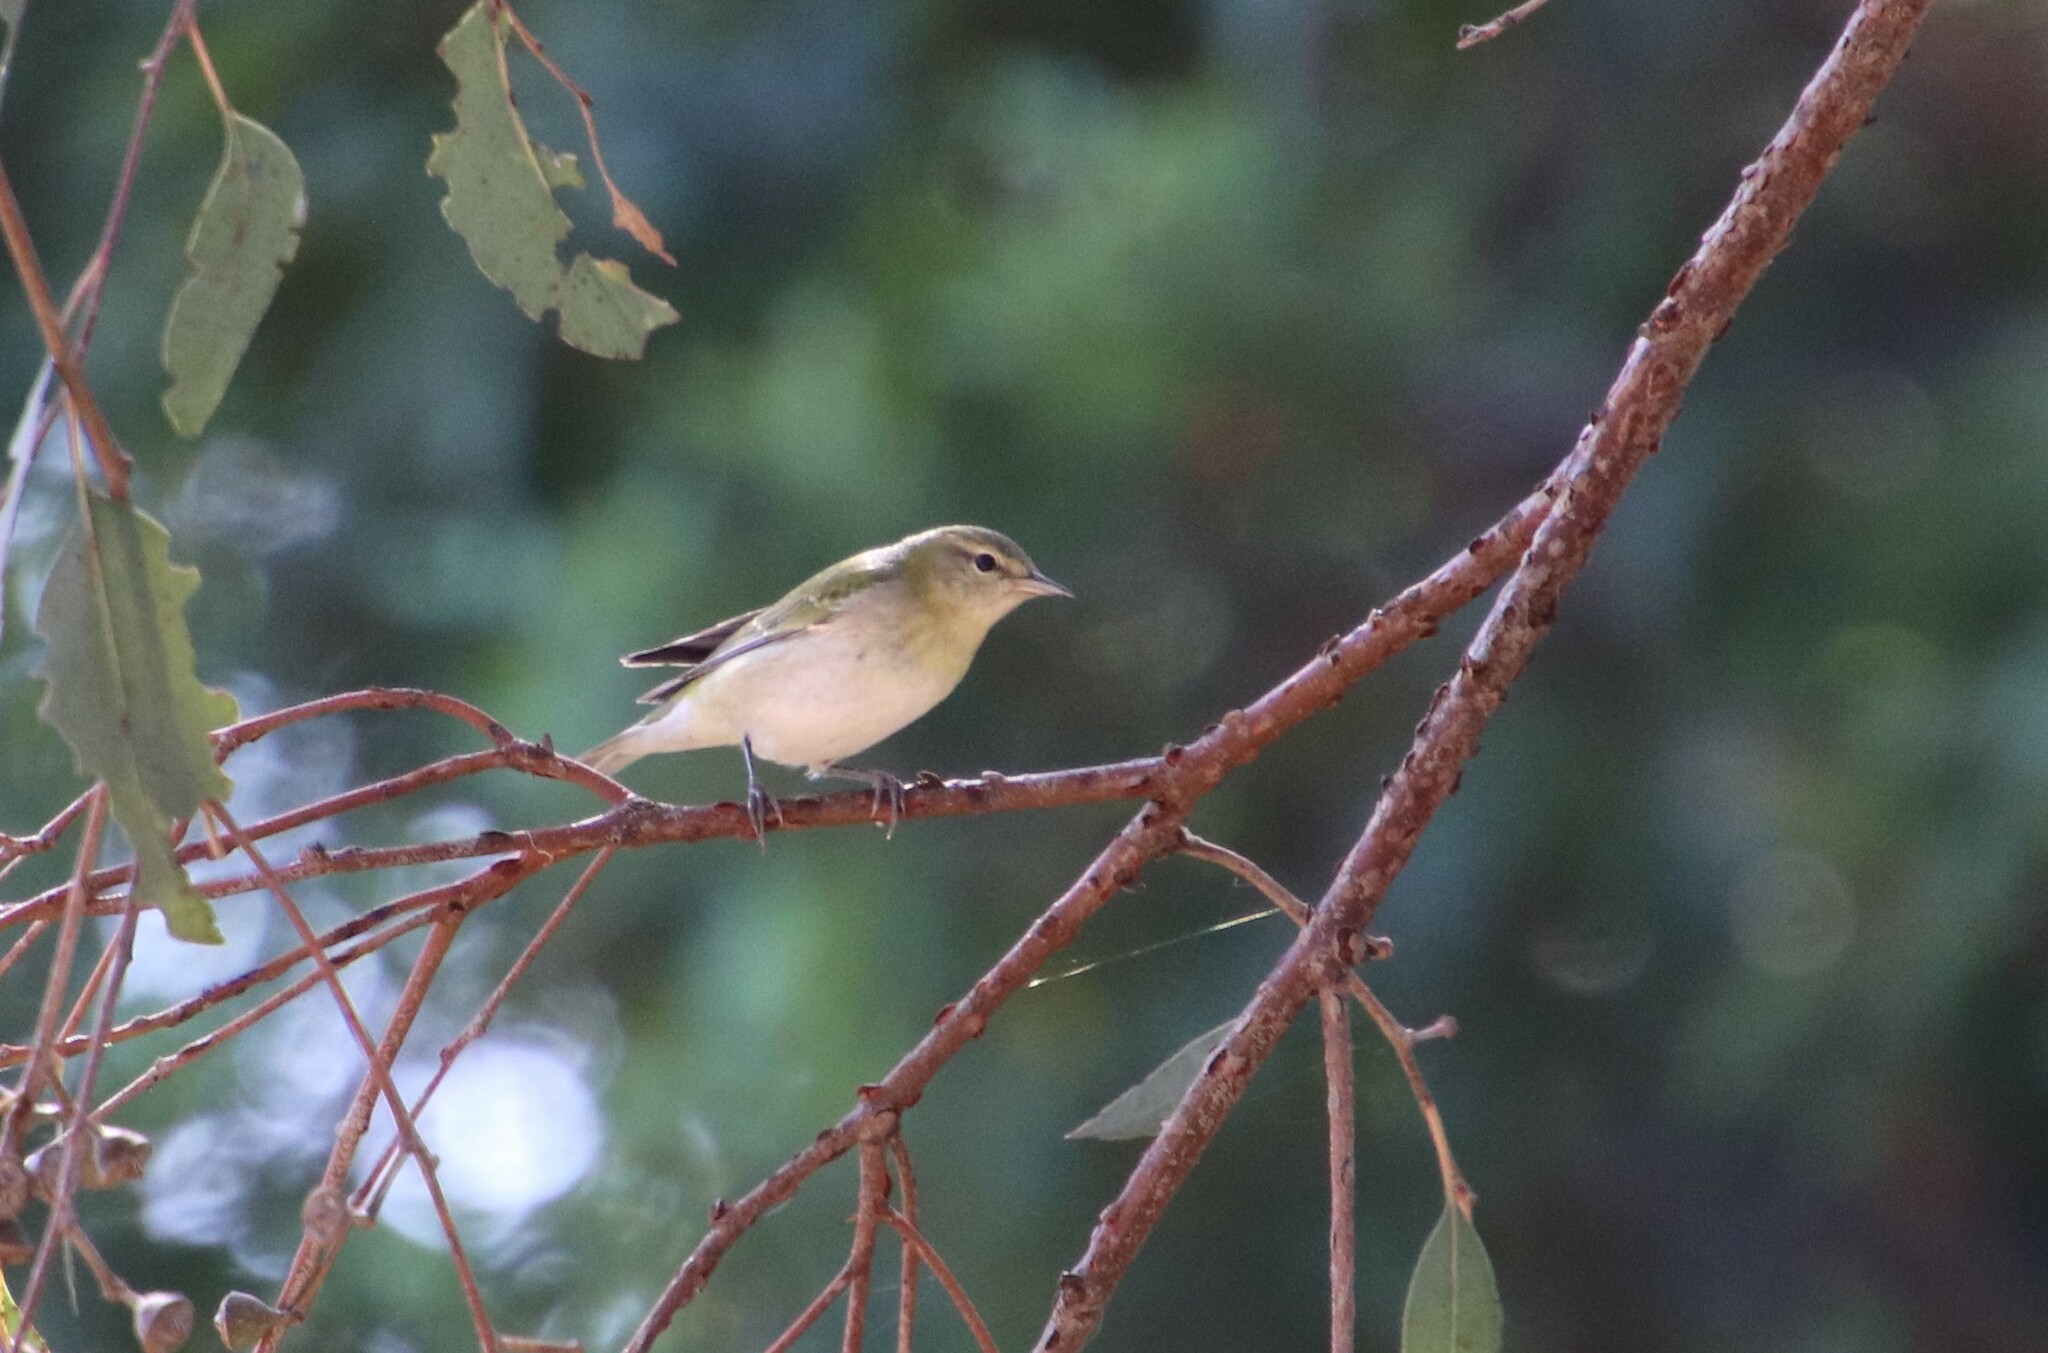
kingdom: Animalia
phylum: Chordata
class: Aves
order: Passeriformes
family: Parulidae
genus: Leiothlypis
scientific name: Leiothlypis peregrina
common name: Tennessee warbler
